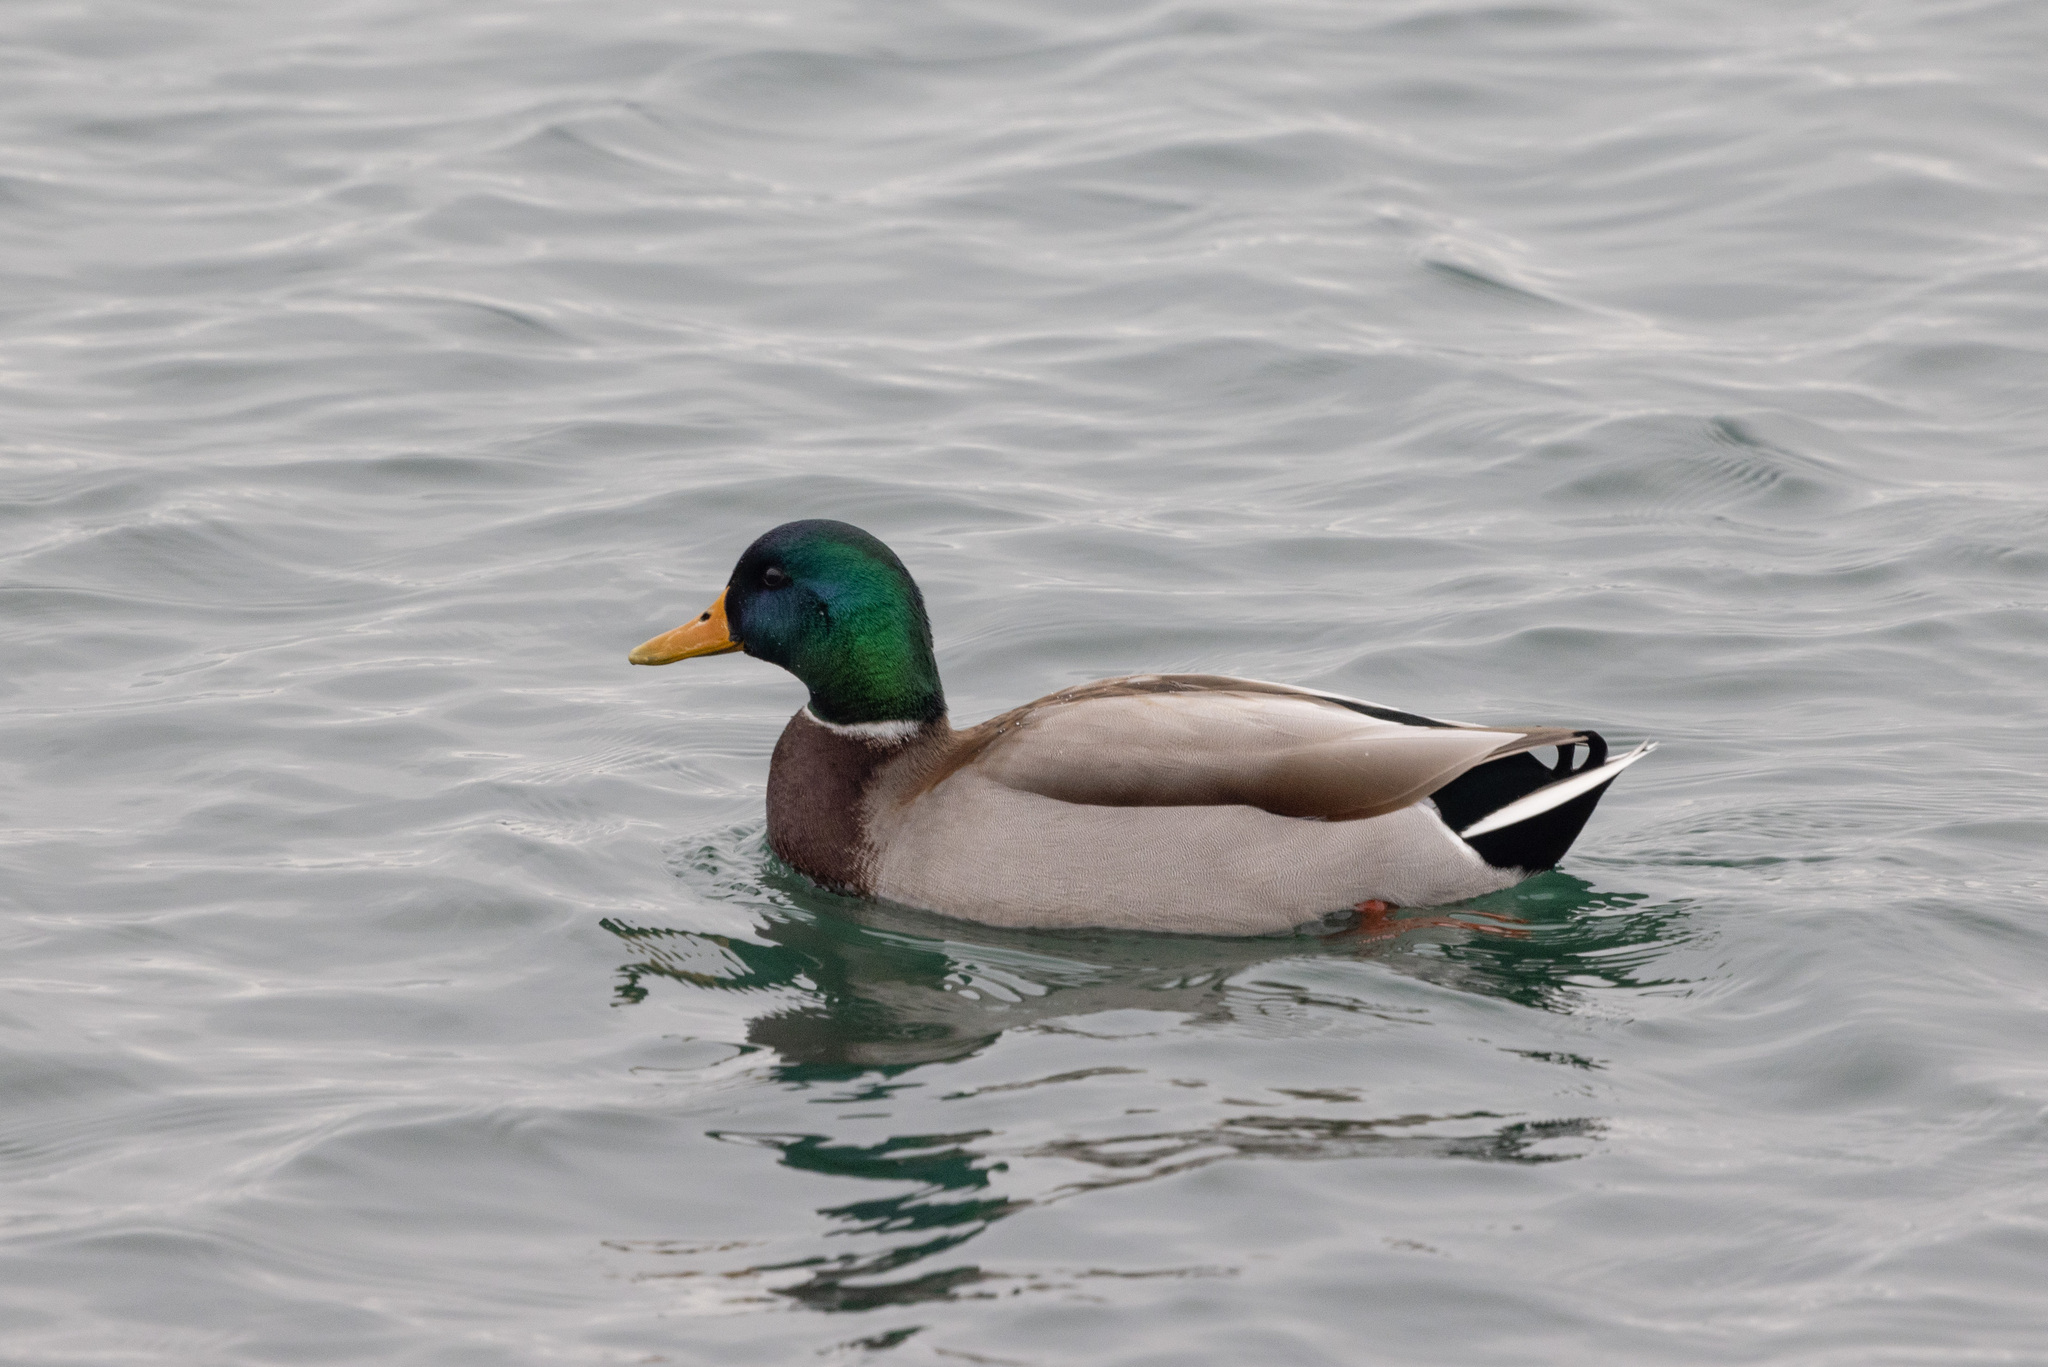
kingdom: Animalia
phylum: Chordata
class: Aves
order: Anseriformes
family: Anatidae
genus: Anas
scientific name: Anas platyrhynchos
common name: Mallard
